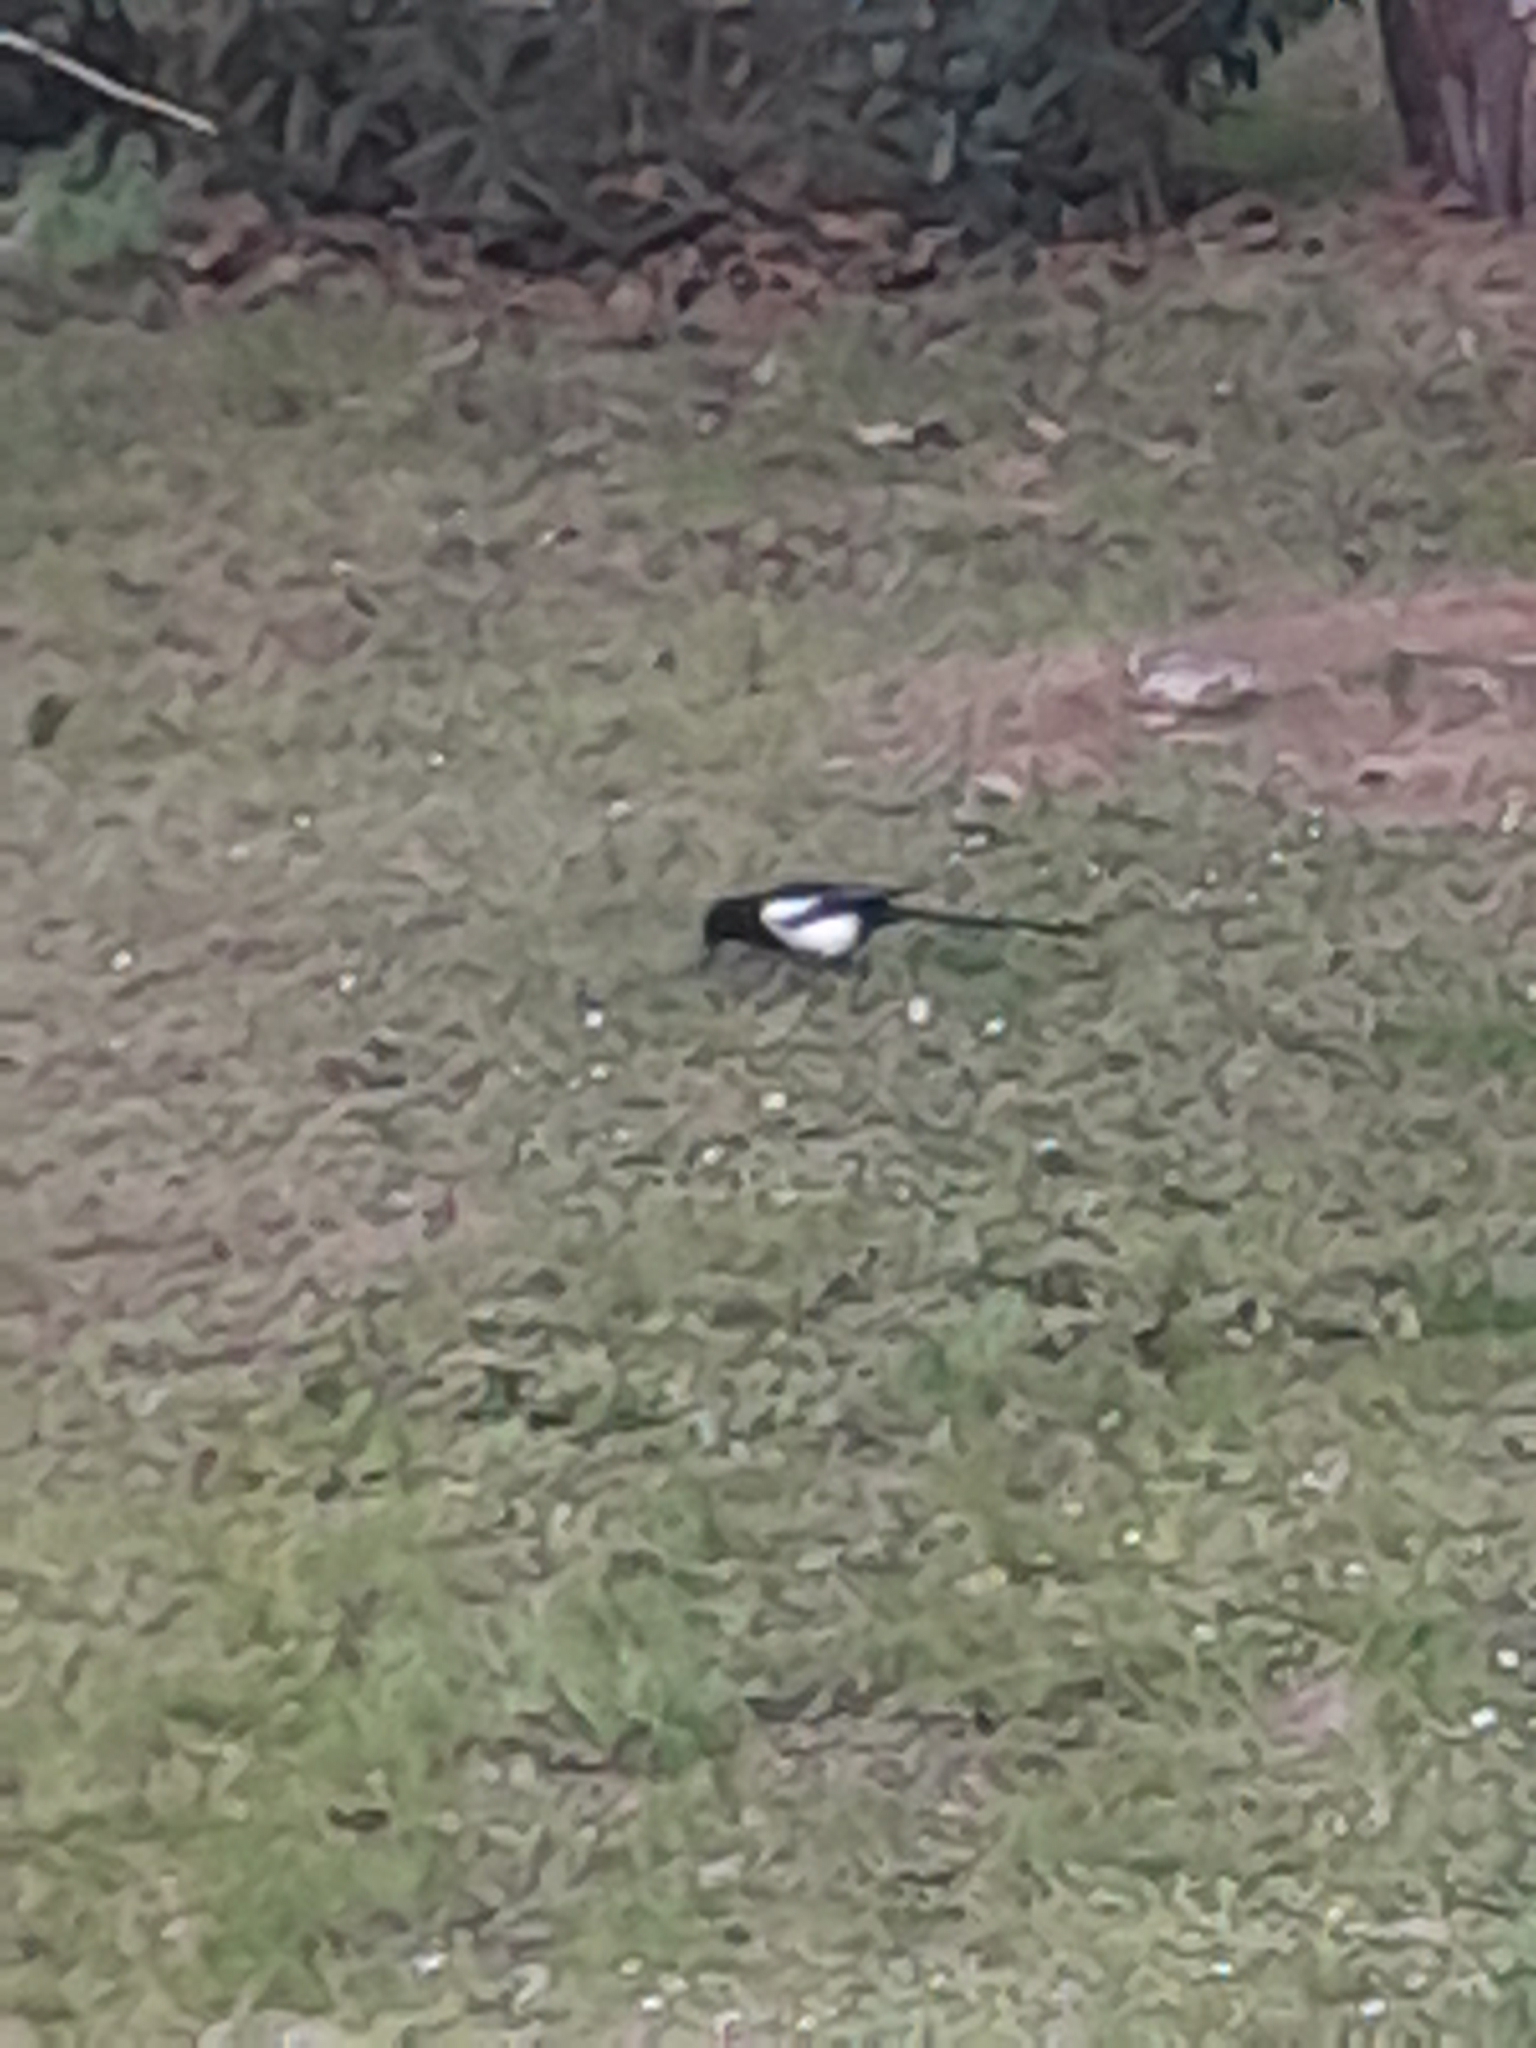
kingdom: Animalia
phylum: Chordata
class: Aves
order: Passeriformes
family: Corvidae
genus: Pica
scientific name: Pica pica
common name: Eurasian magpie
